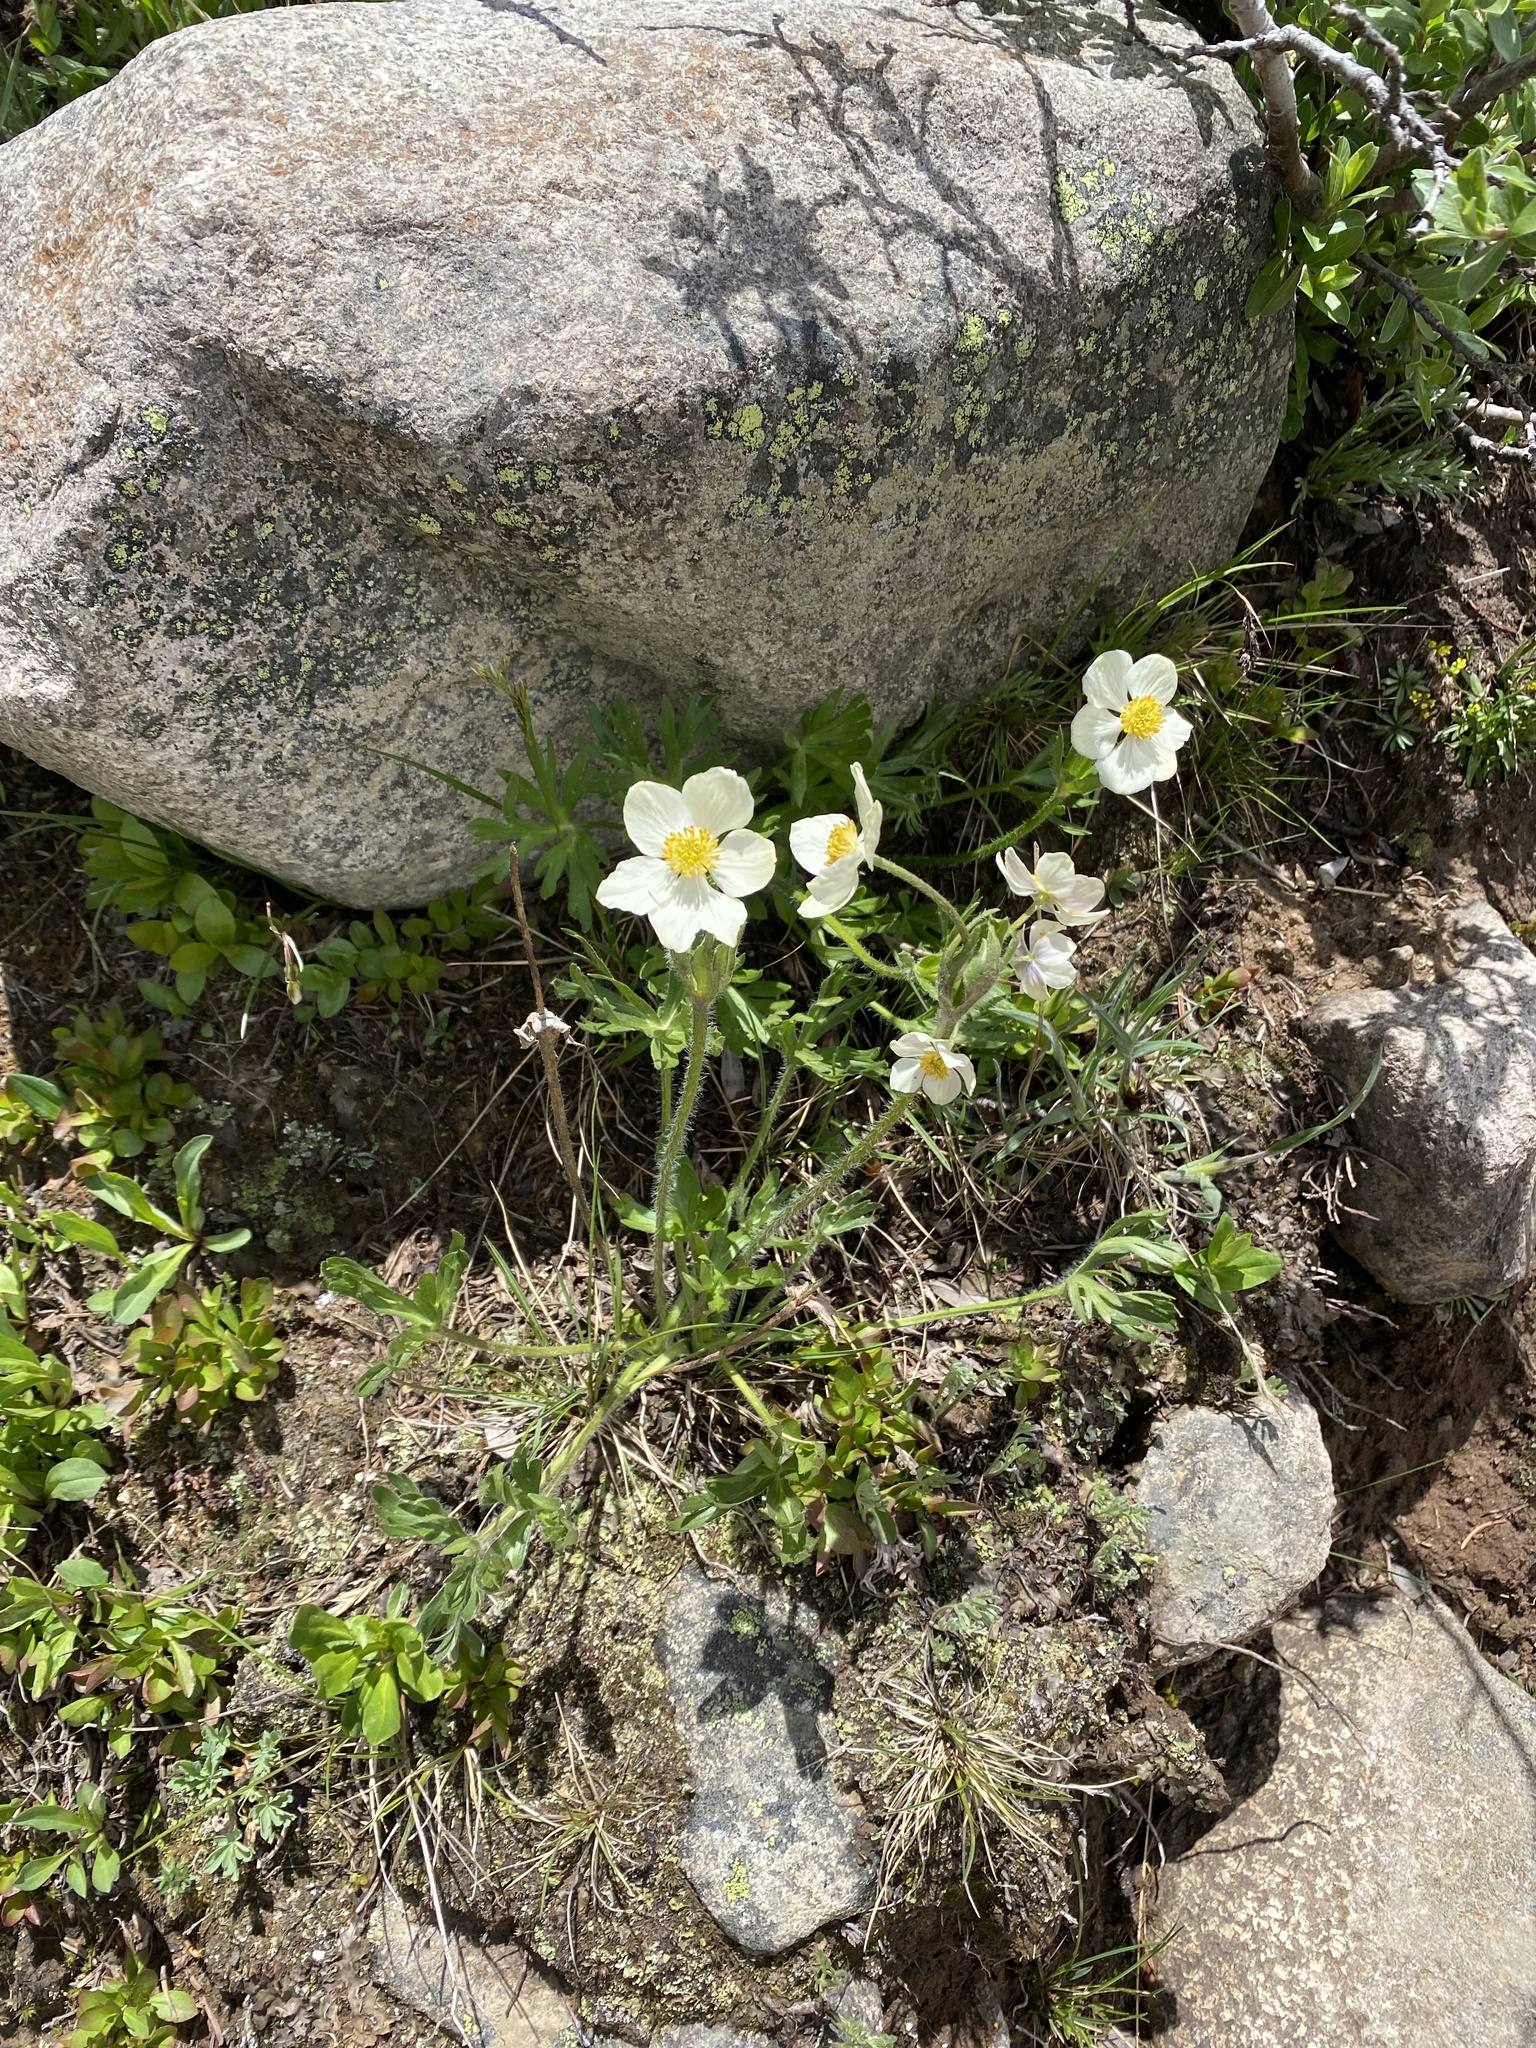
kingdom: Plantae
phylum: Tracheophyta
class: Magnoliopsida
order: Ranunculales
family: Ranunculaceae
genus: Anemonastrum
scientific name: Anemonastrum narcissiflorum
